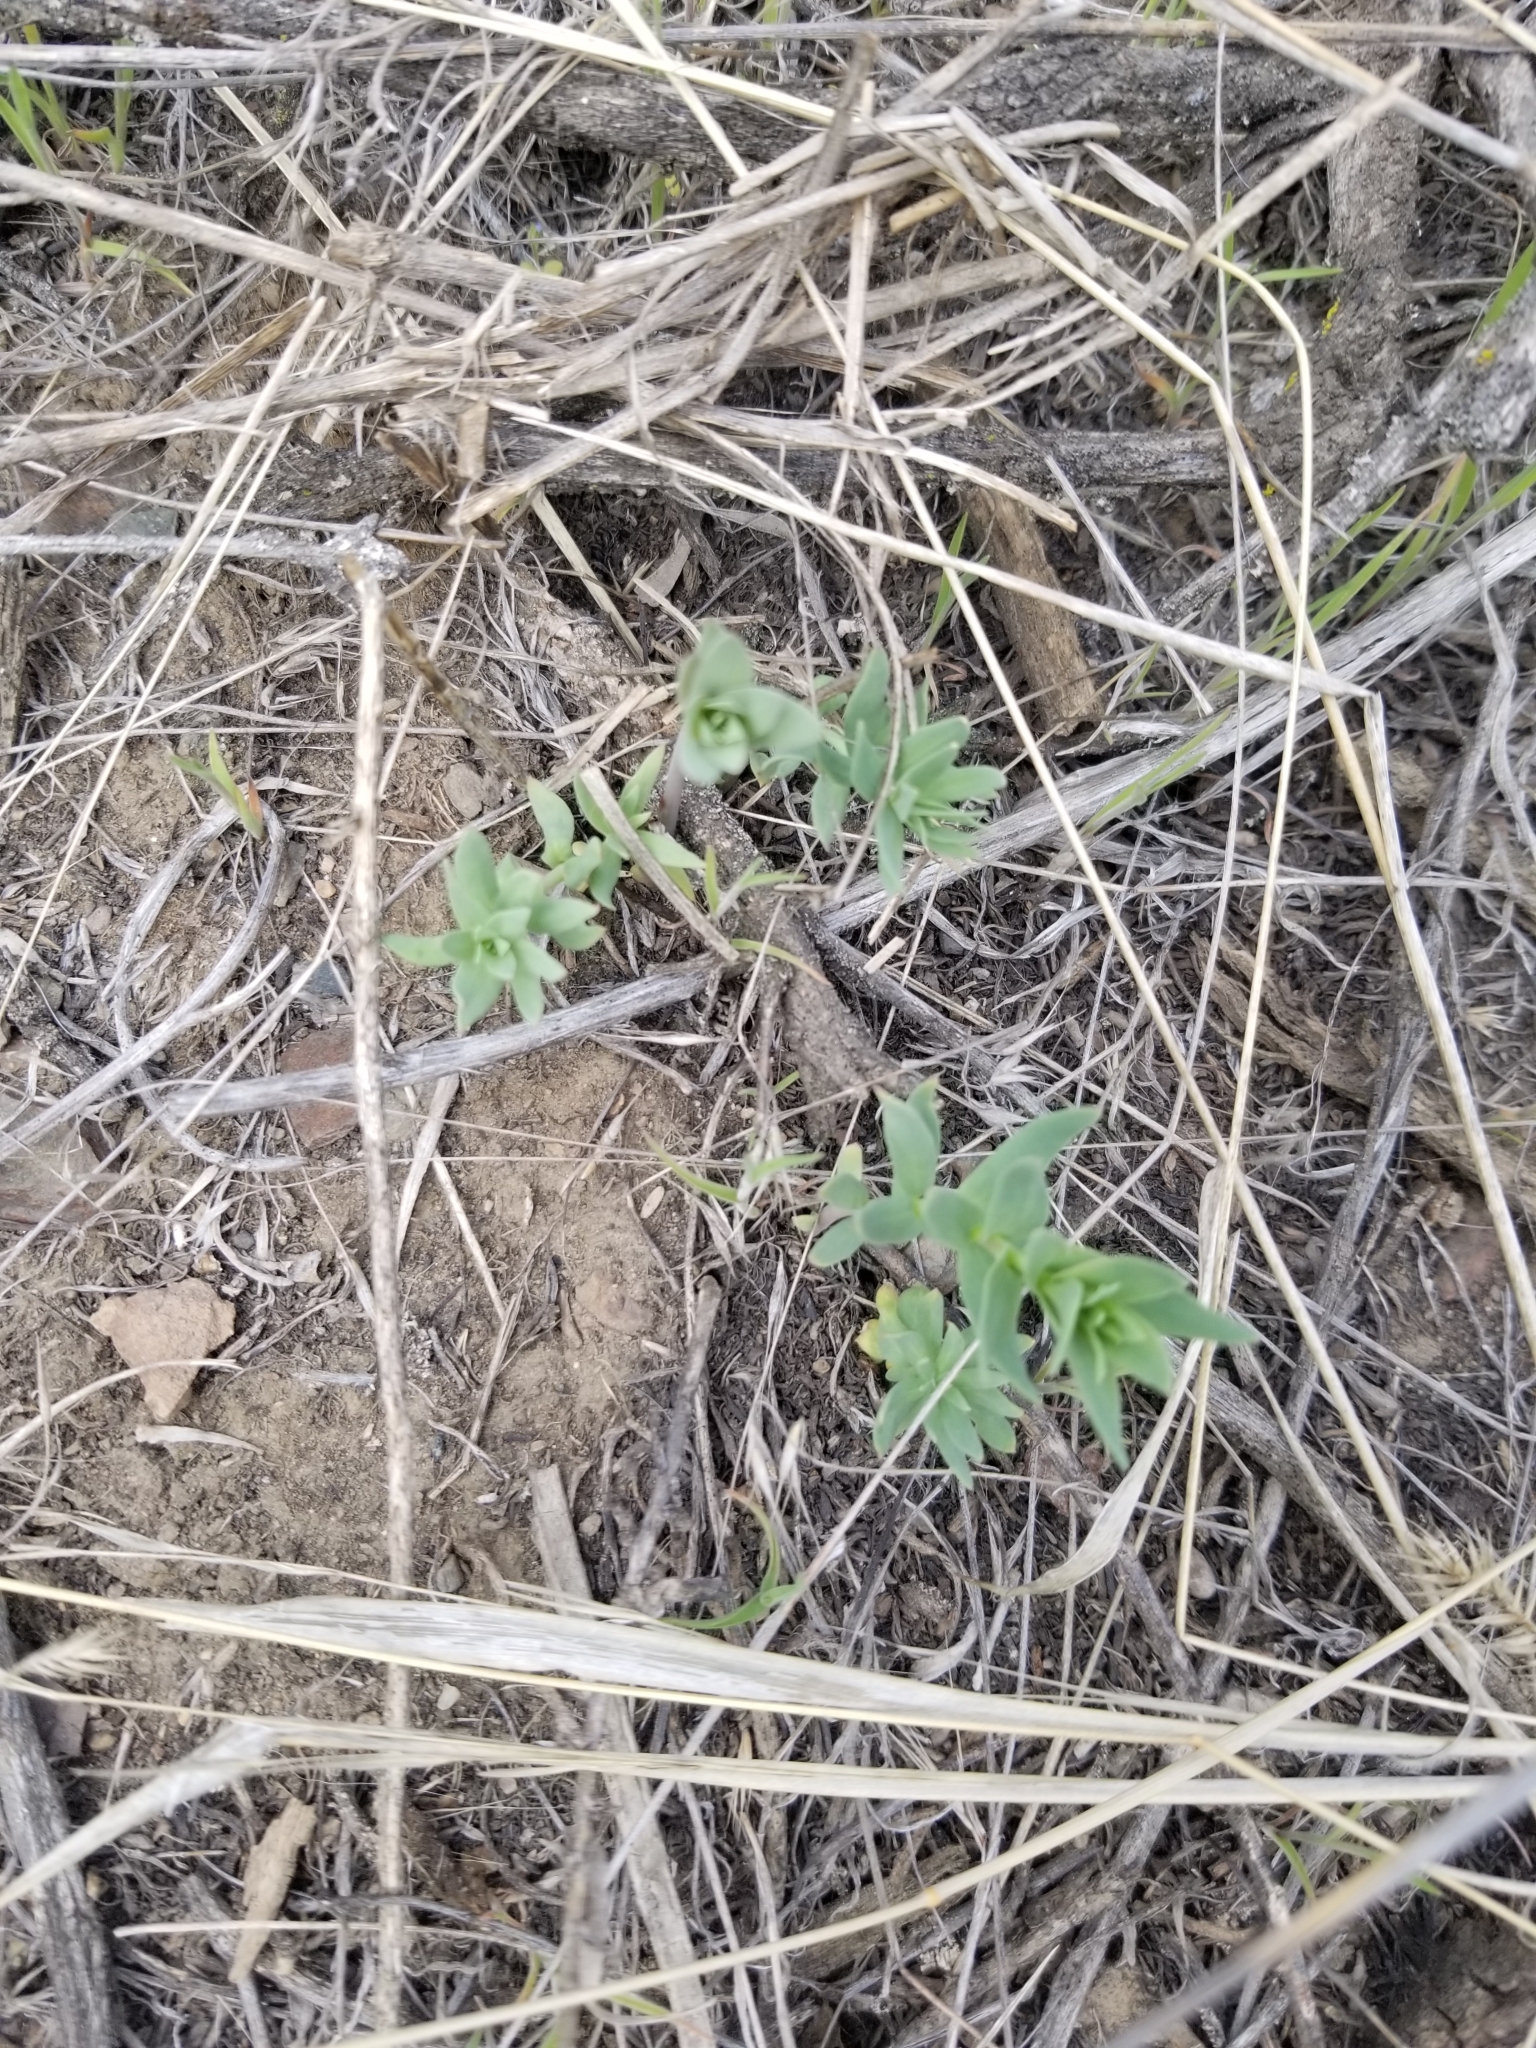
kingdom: Plantae
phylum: Tracheophyta
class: Magnoliopsida
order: Lamiales
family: Plantaginaceae
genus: Linaria
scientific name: Linaria dalmatica
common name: Dalmatian toadflax
